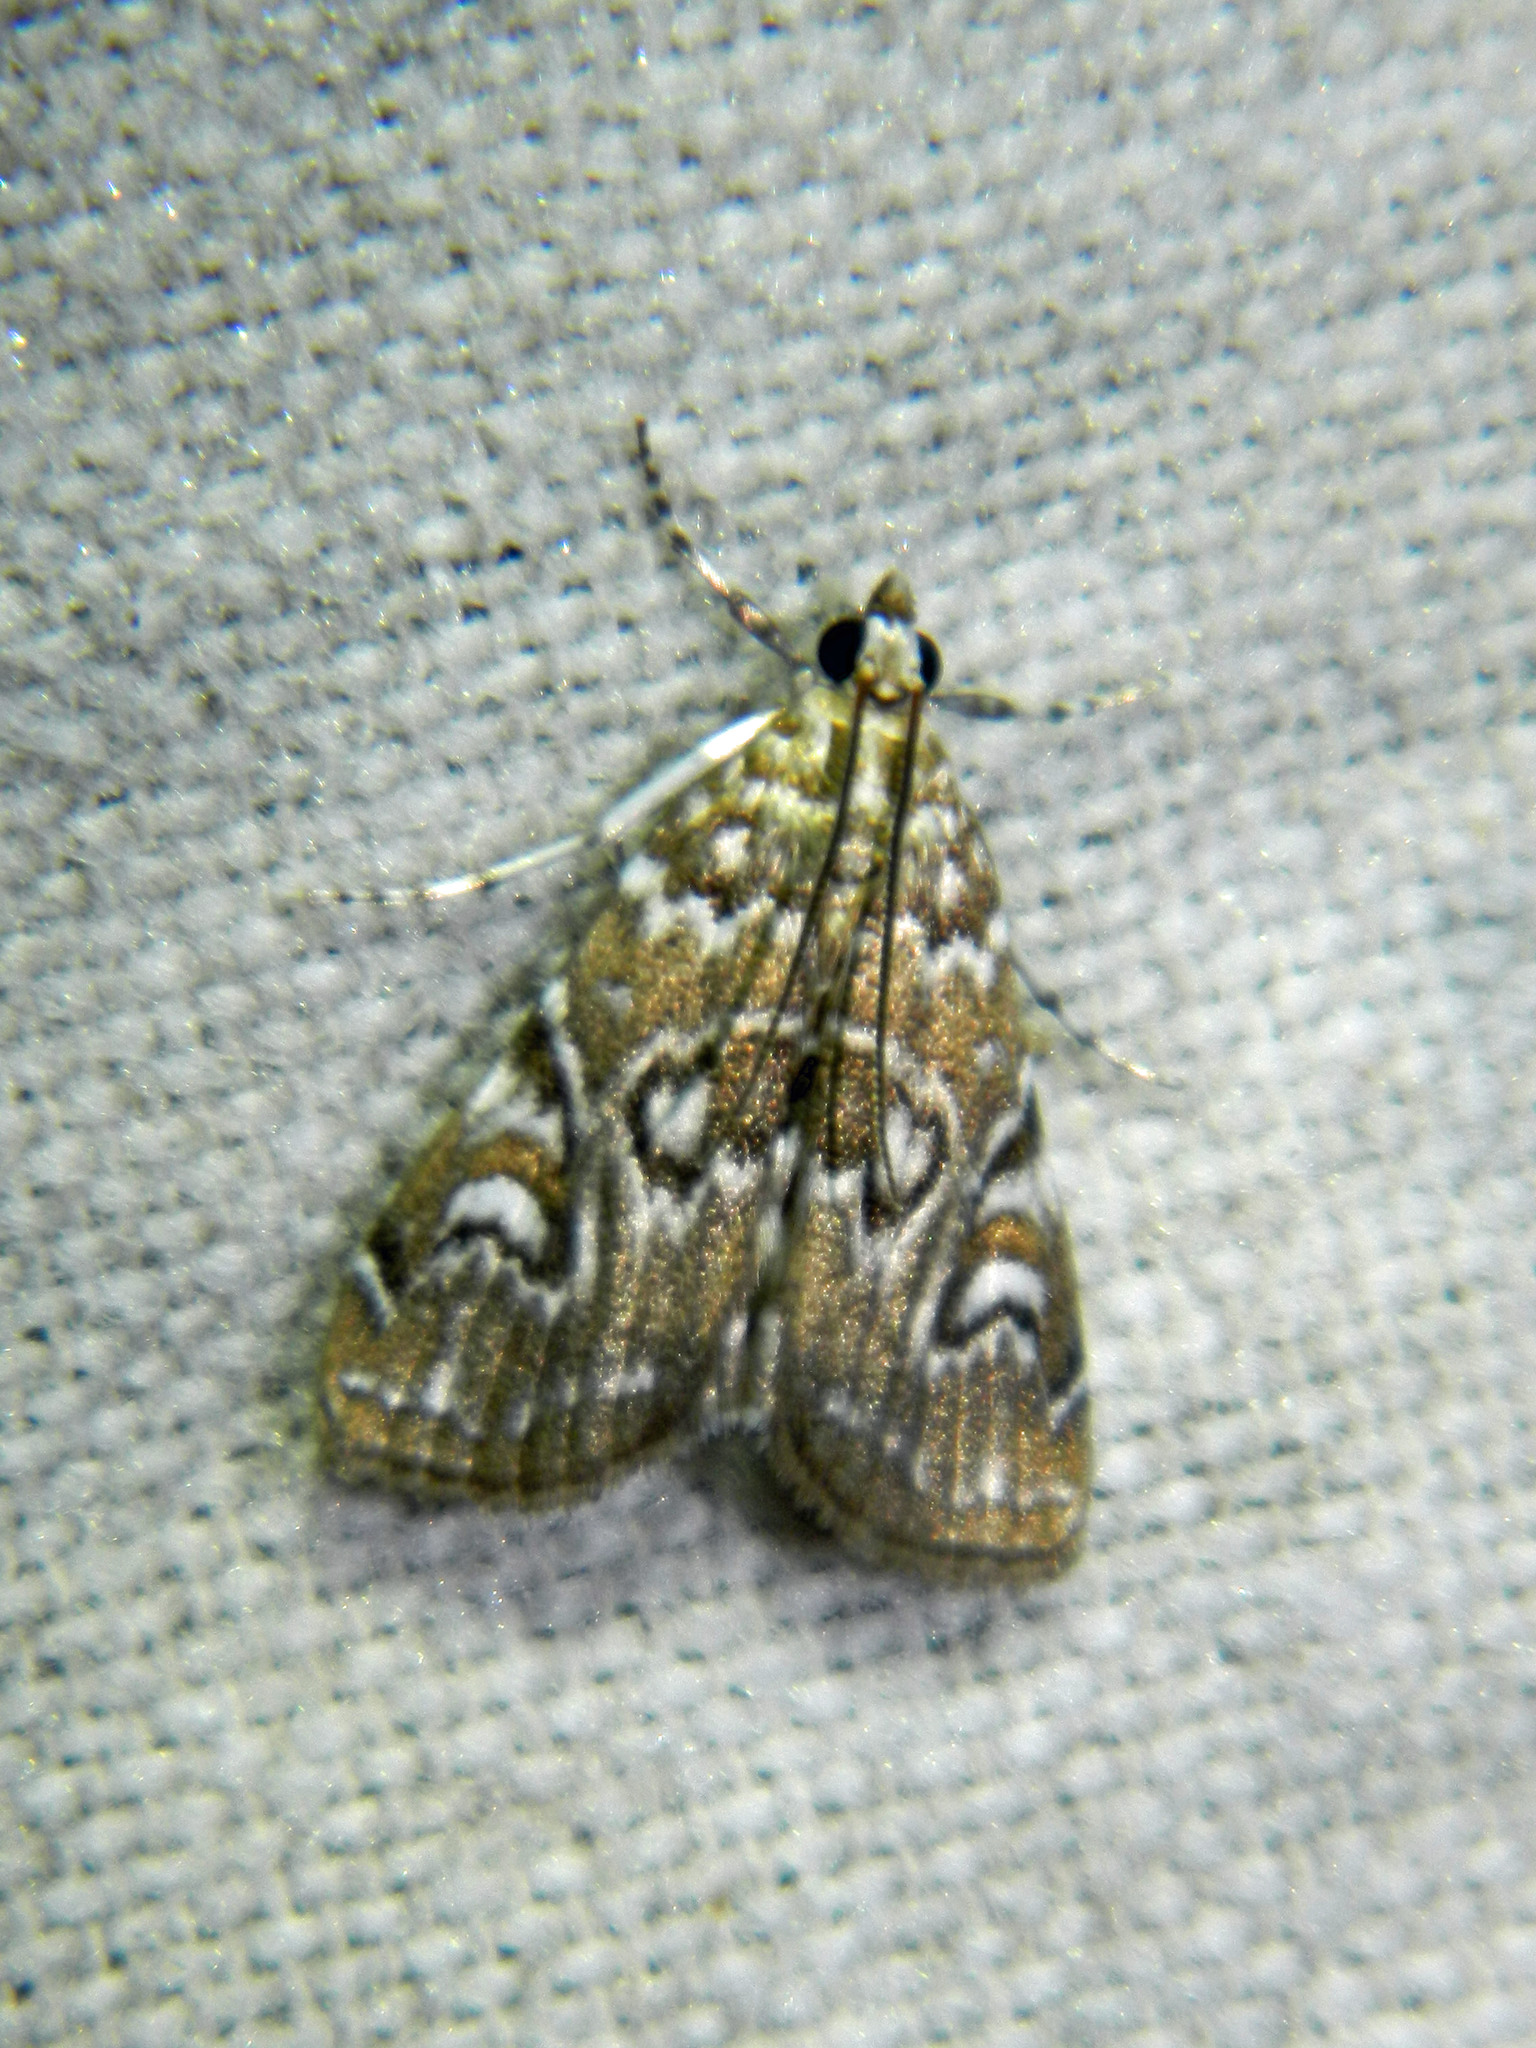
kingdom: Animalia
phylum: Arthropoda
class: Insecta
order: Lepidoptera
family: Crambidae
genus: Elophila
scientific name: Elophila gyralis
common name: Waterlily borer moth
